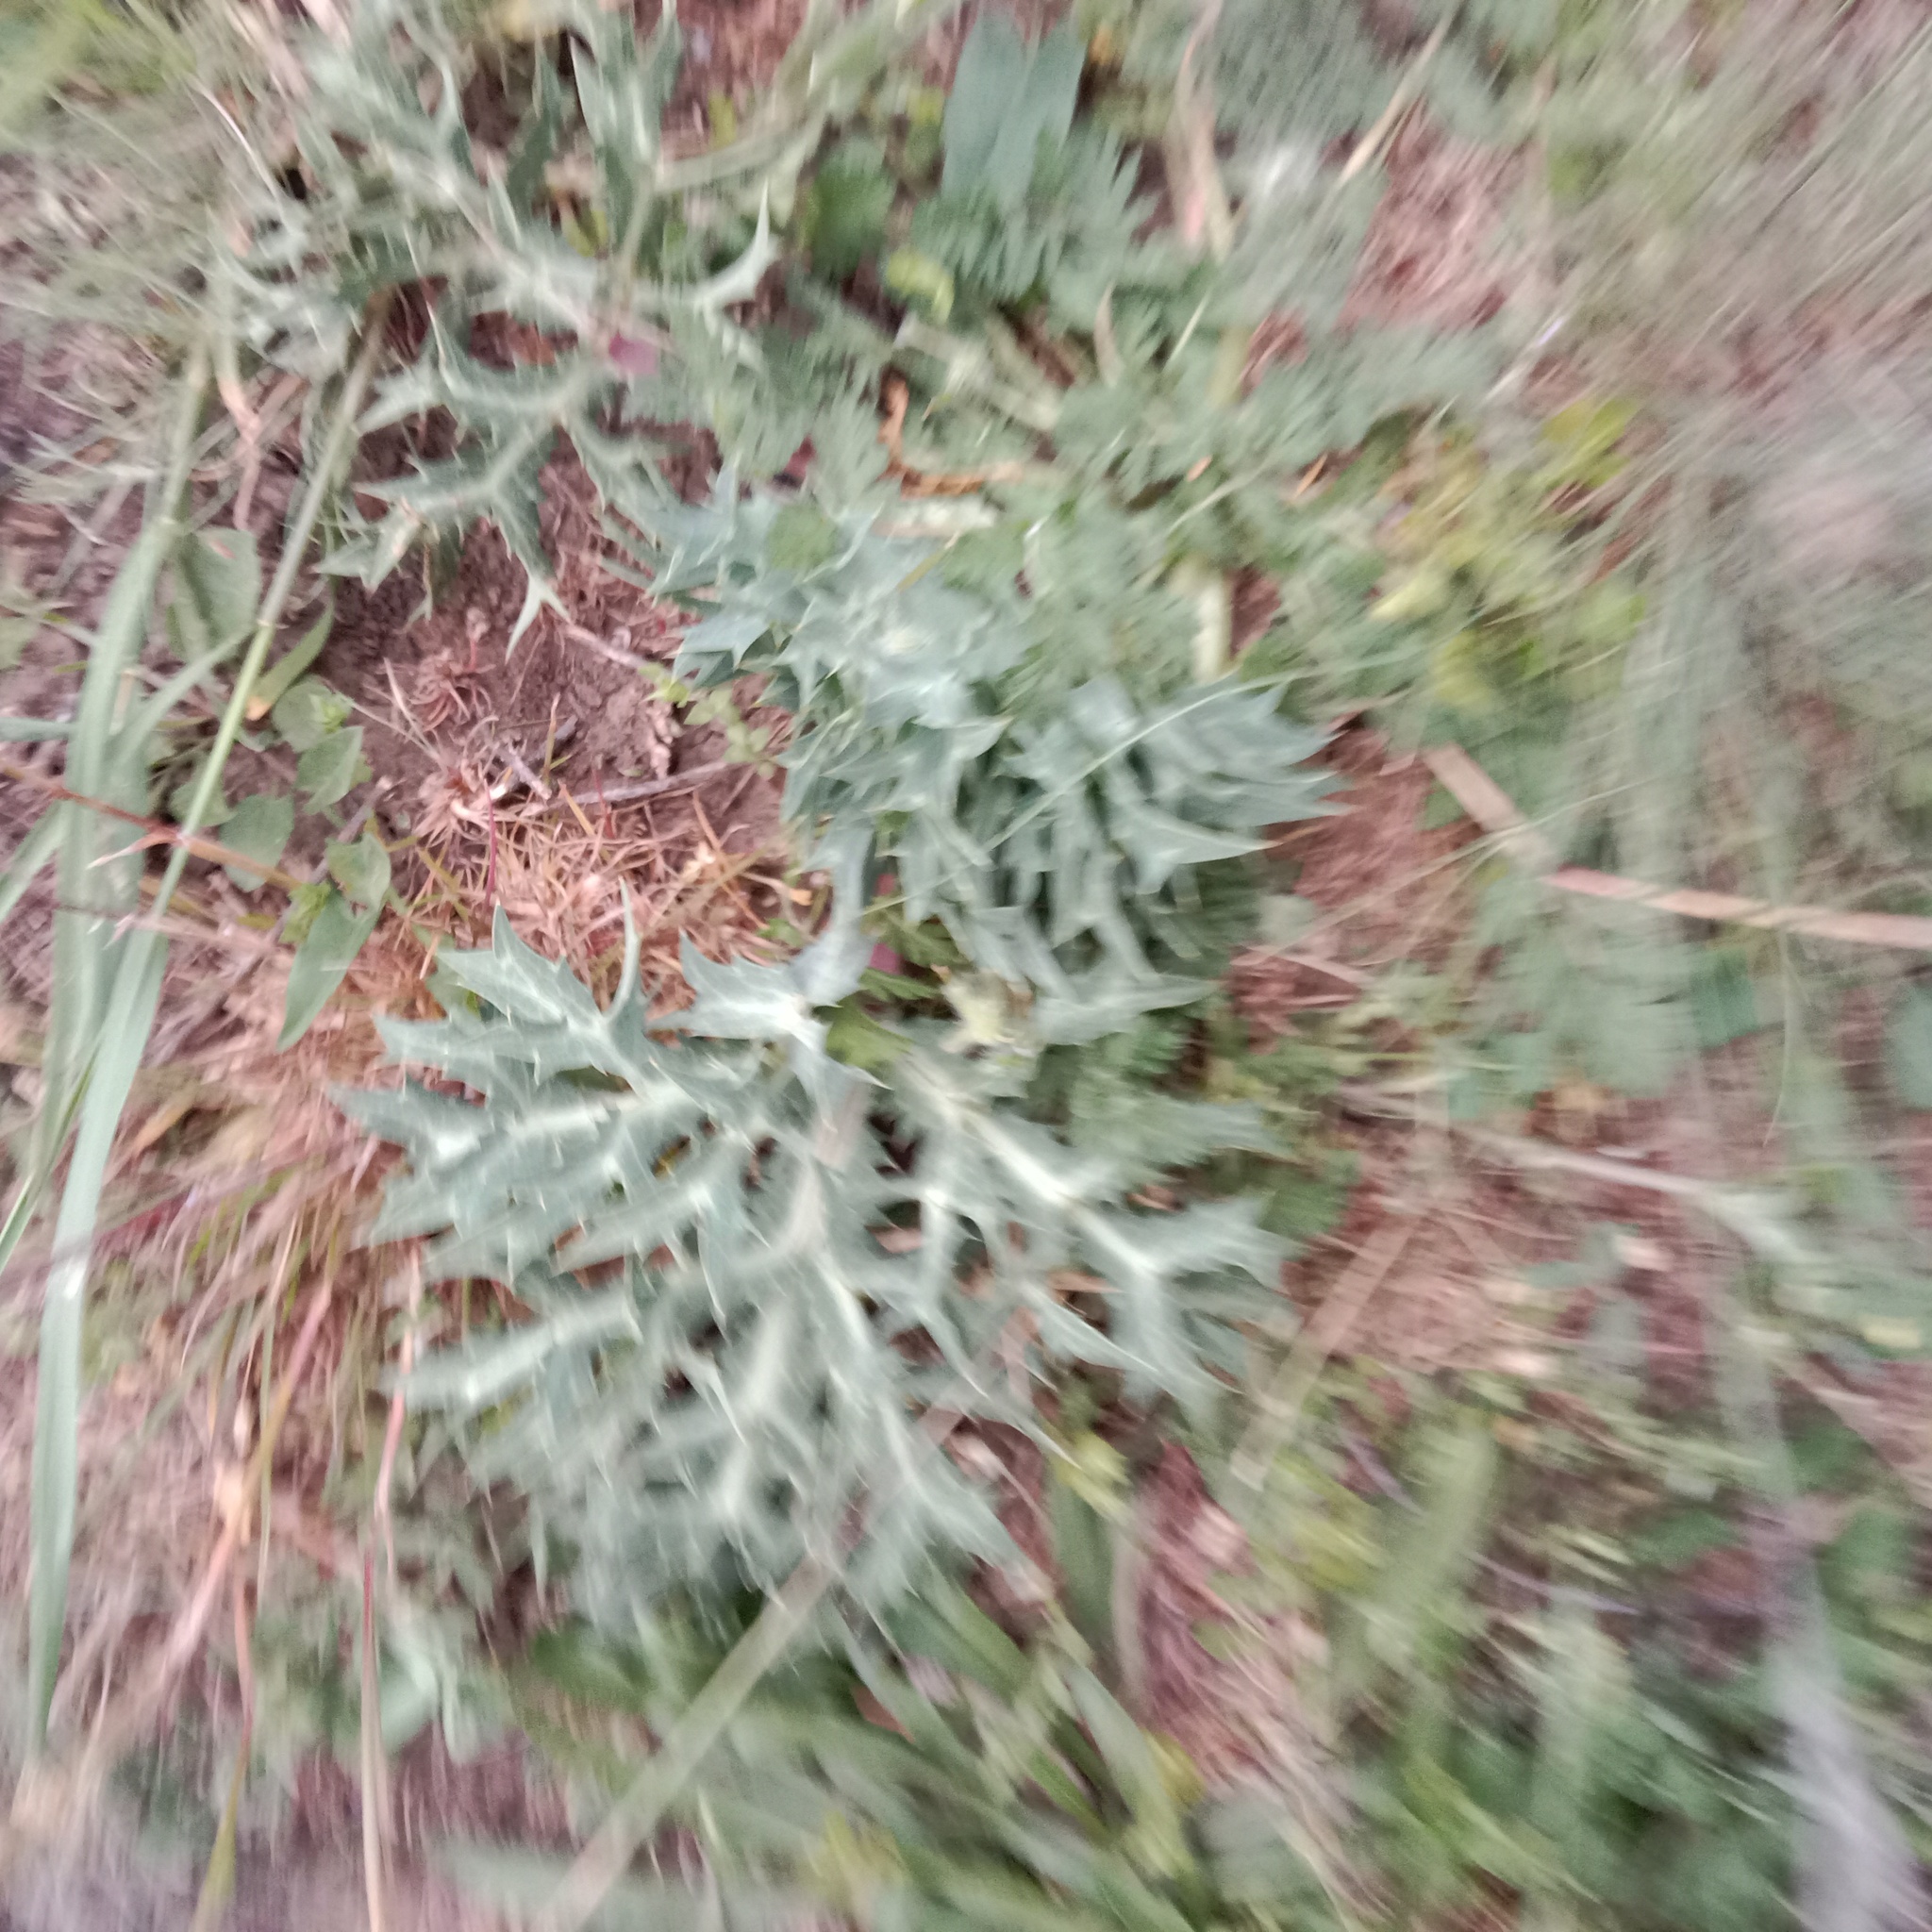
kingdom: Plantae
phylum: Tracheophyta
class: Magnoliopsida
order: Apiales
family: Apiaceae
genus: Eryngium
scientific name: Eryngium campestre
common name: Field eryngo
